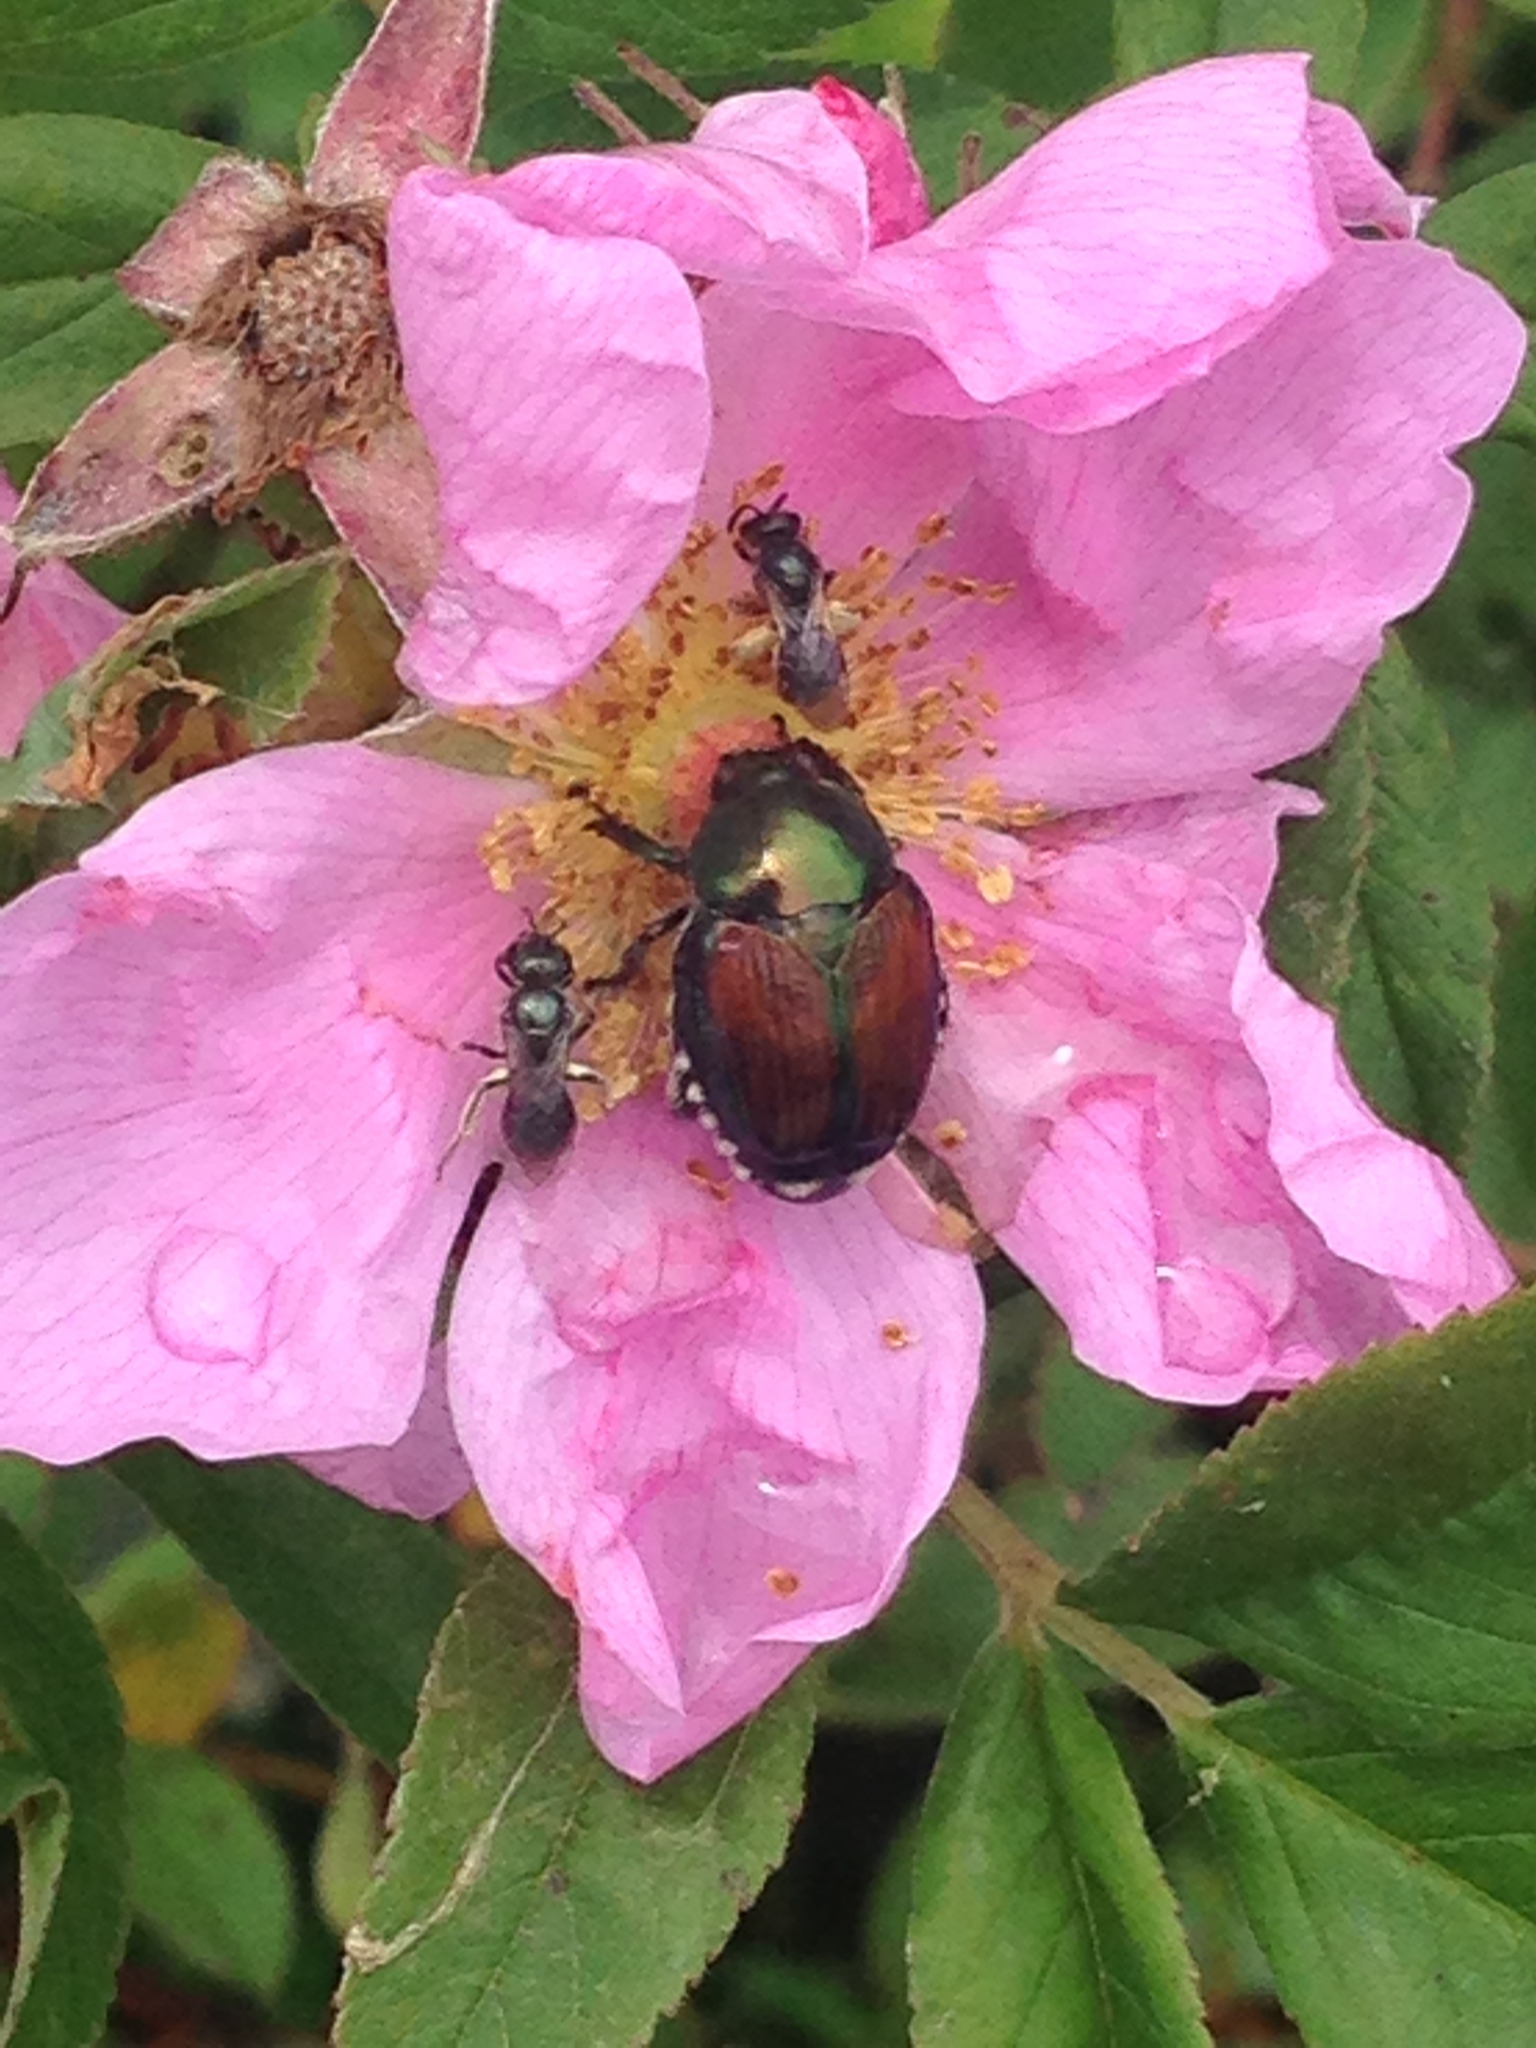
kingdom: Animalia
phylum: Arthropoda
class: Insecta
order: Coleoptera
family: Scarabaeidae
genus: Popillia
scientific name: Popillia japonica
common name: Japanese beetle
